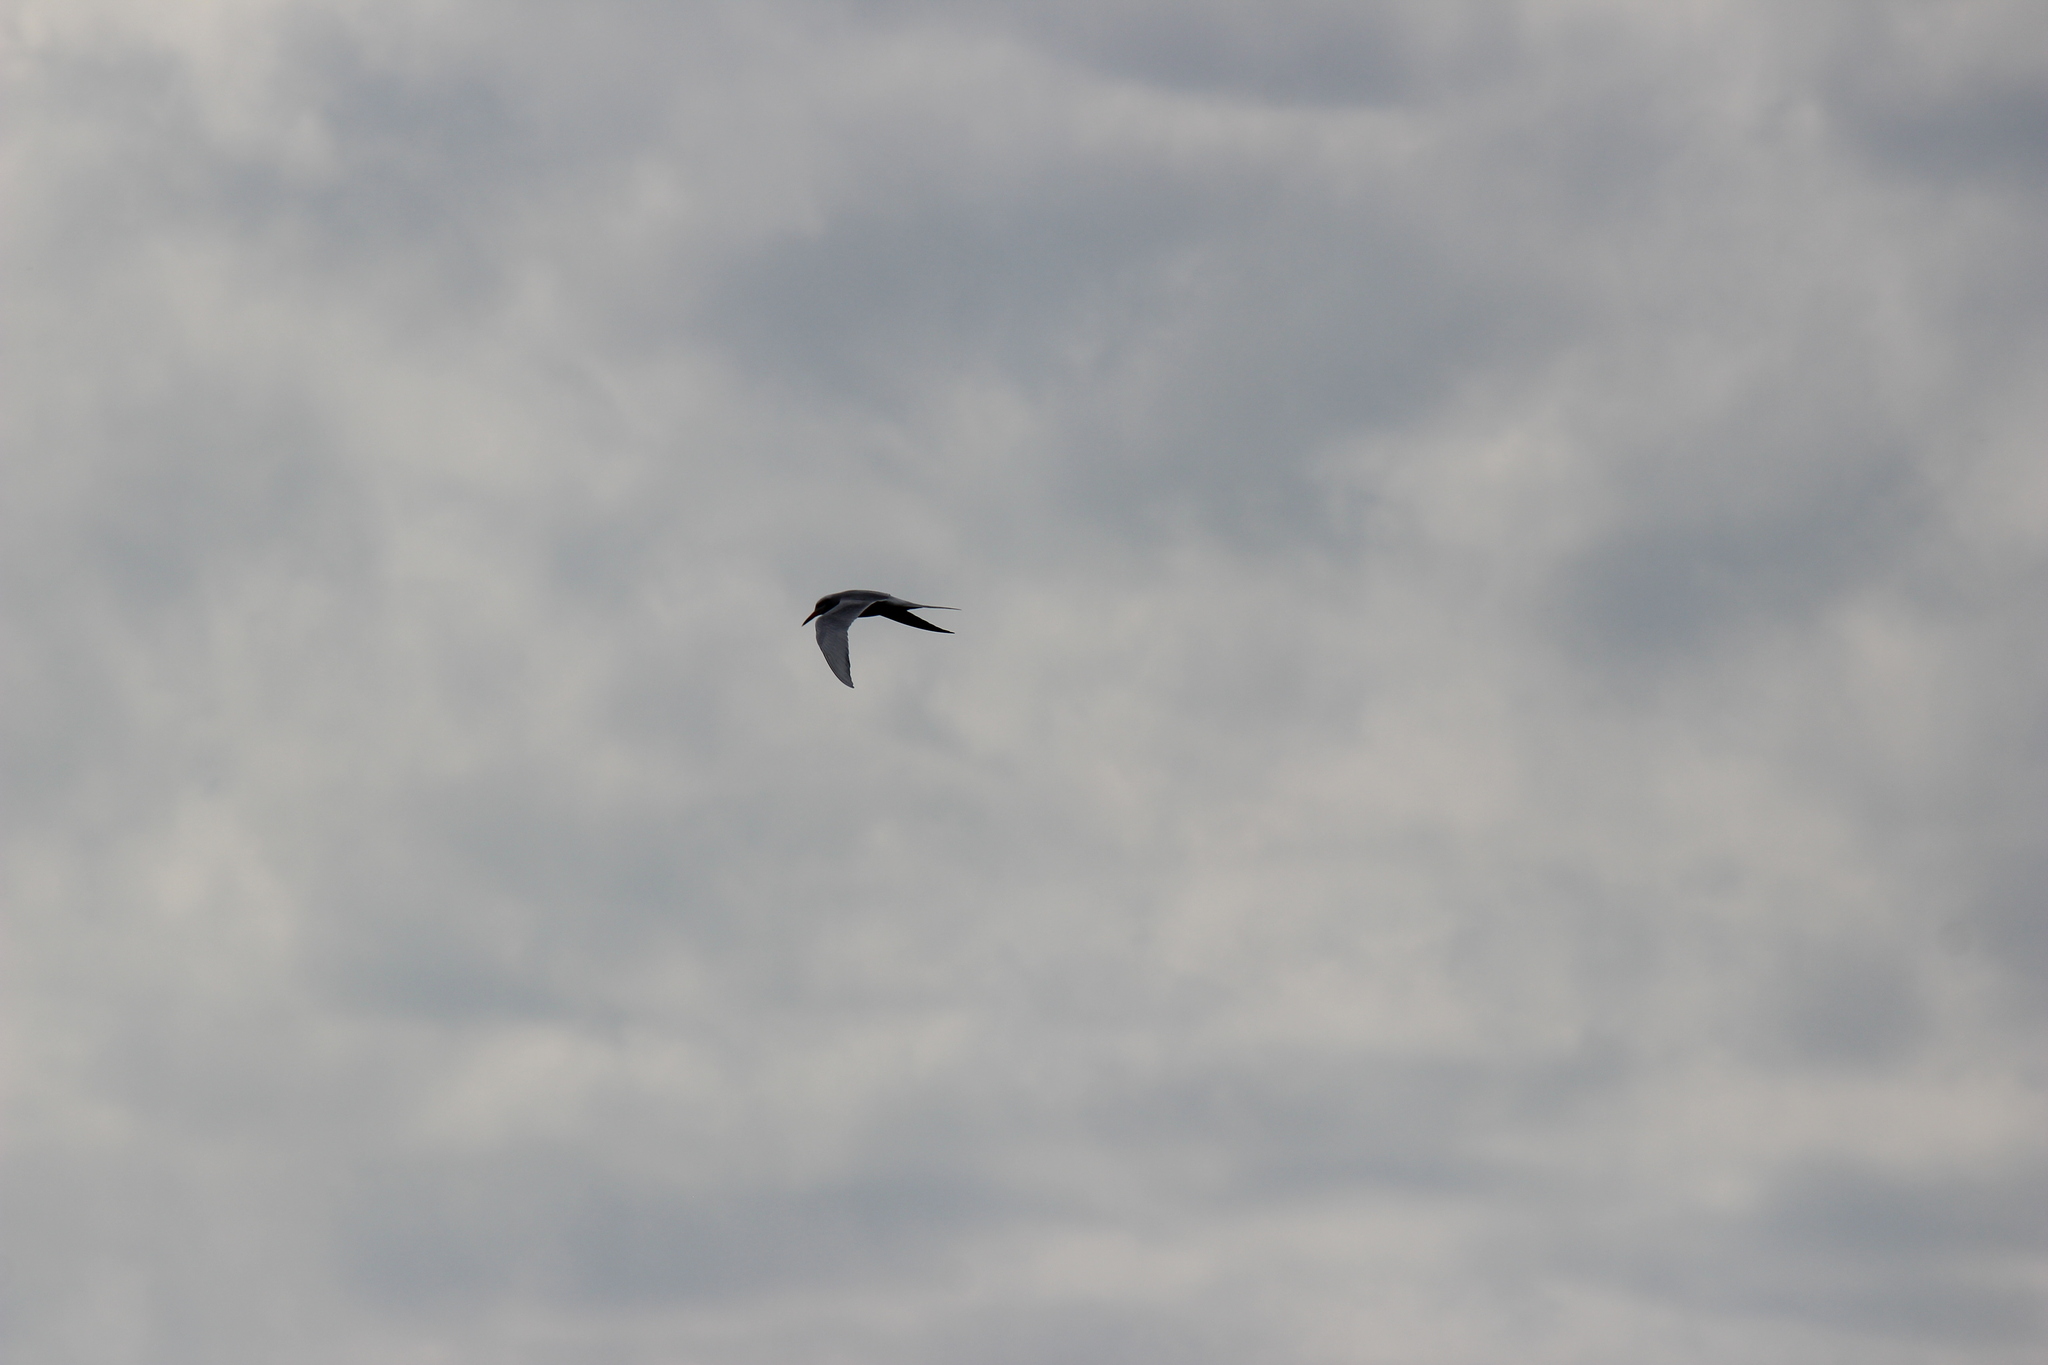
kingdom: Animalia
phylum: Chordata
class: Aves
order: Charadriiformes
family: Laridae
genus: Sterna
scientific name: Sterna trudeaui
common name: Snowy-crowned tern
